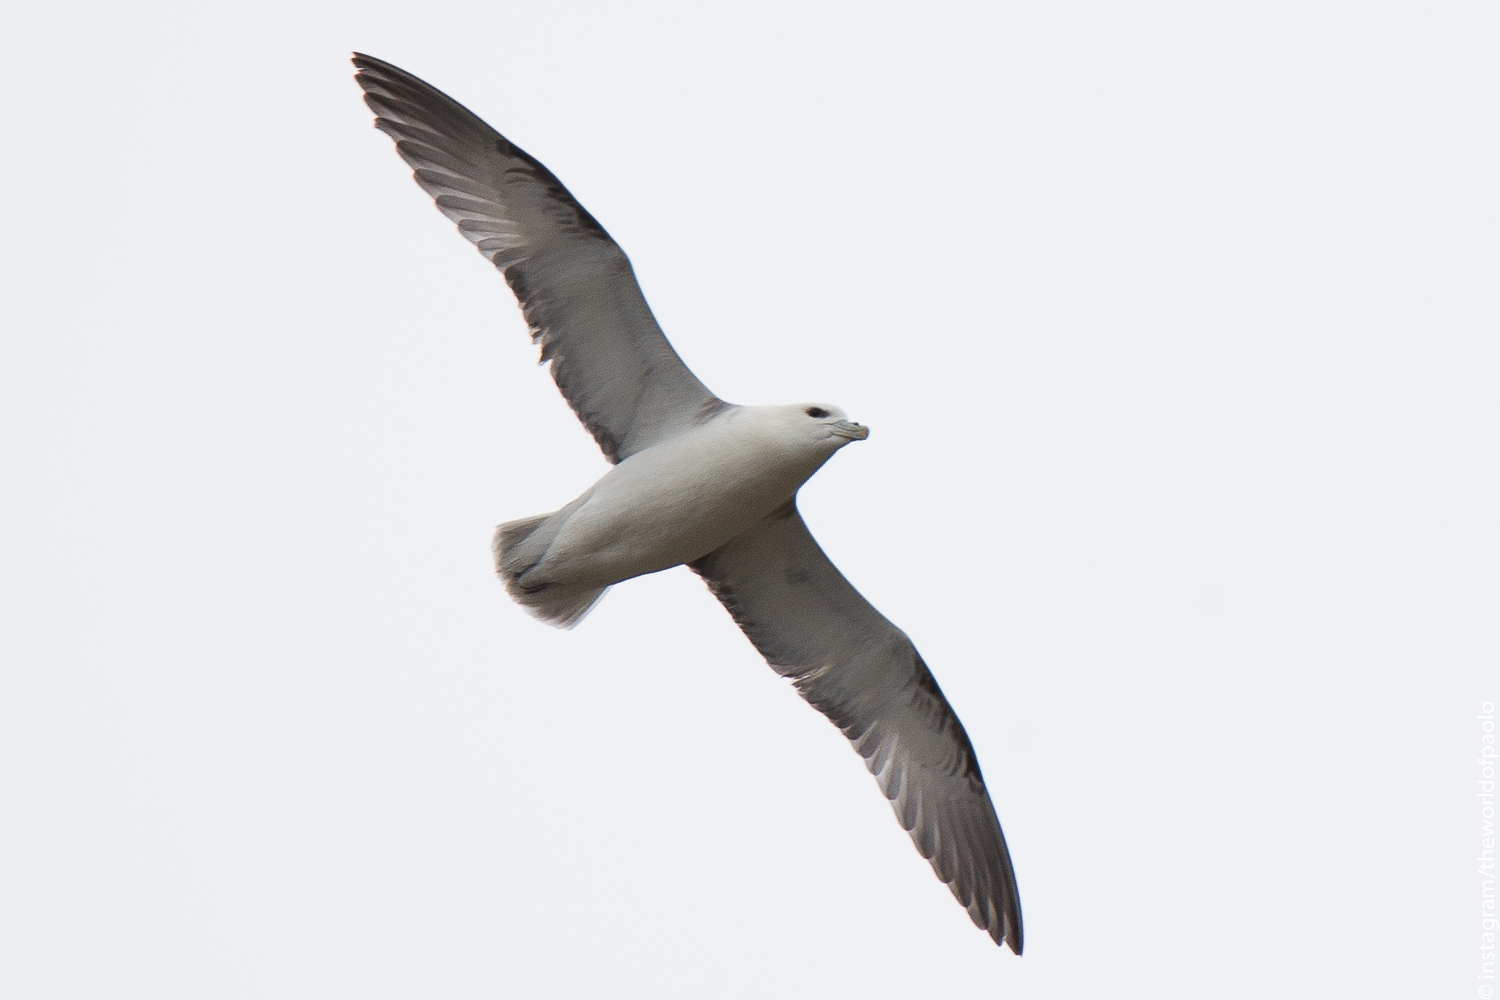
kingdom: Animalia
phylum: Chordata
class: Aves
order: Procellariiformes
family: Procellariidae
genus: Fulmarus
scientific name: Fulmarus glacialis
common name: Northern fulmar
